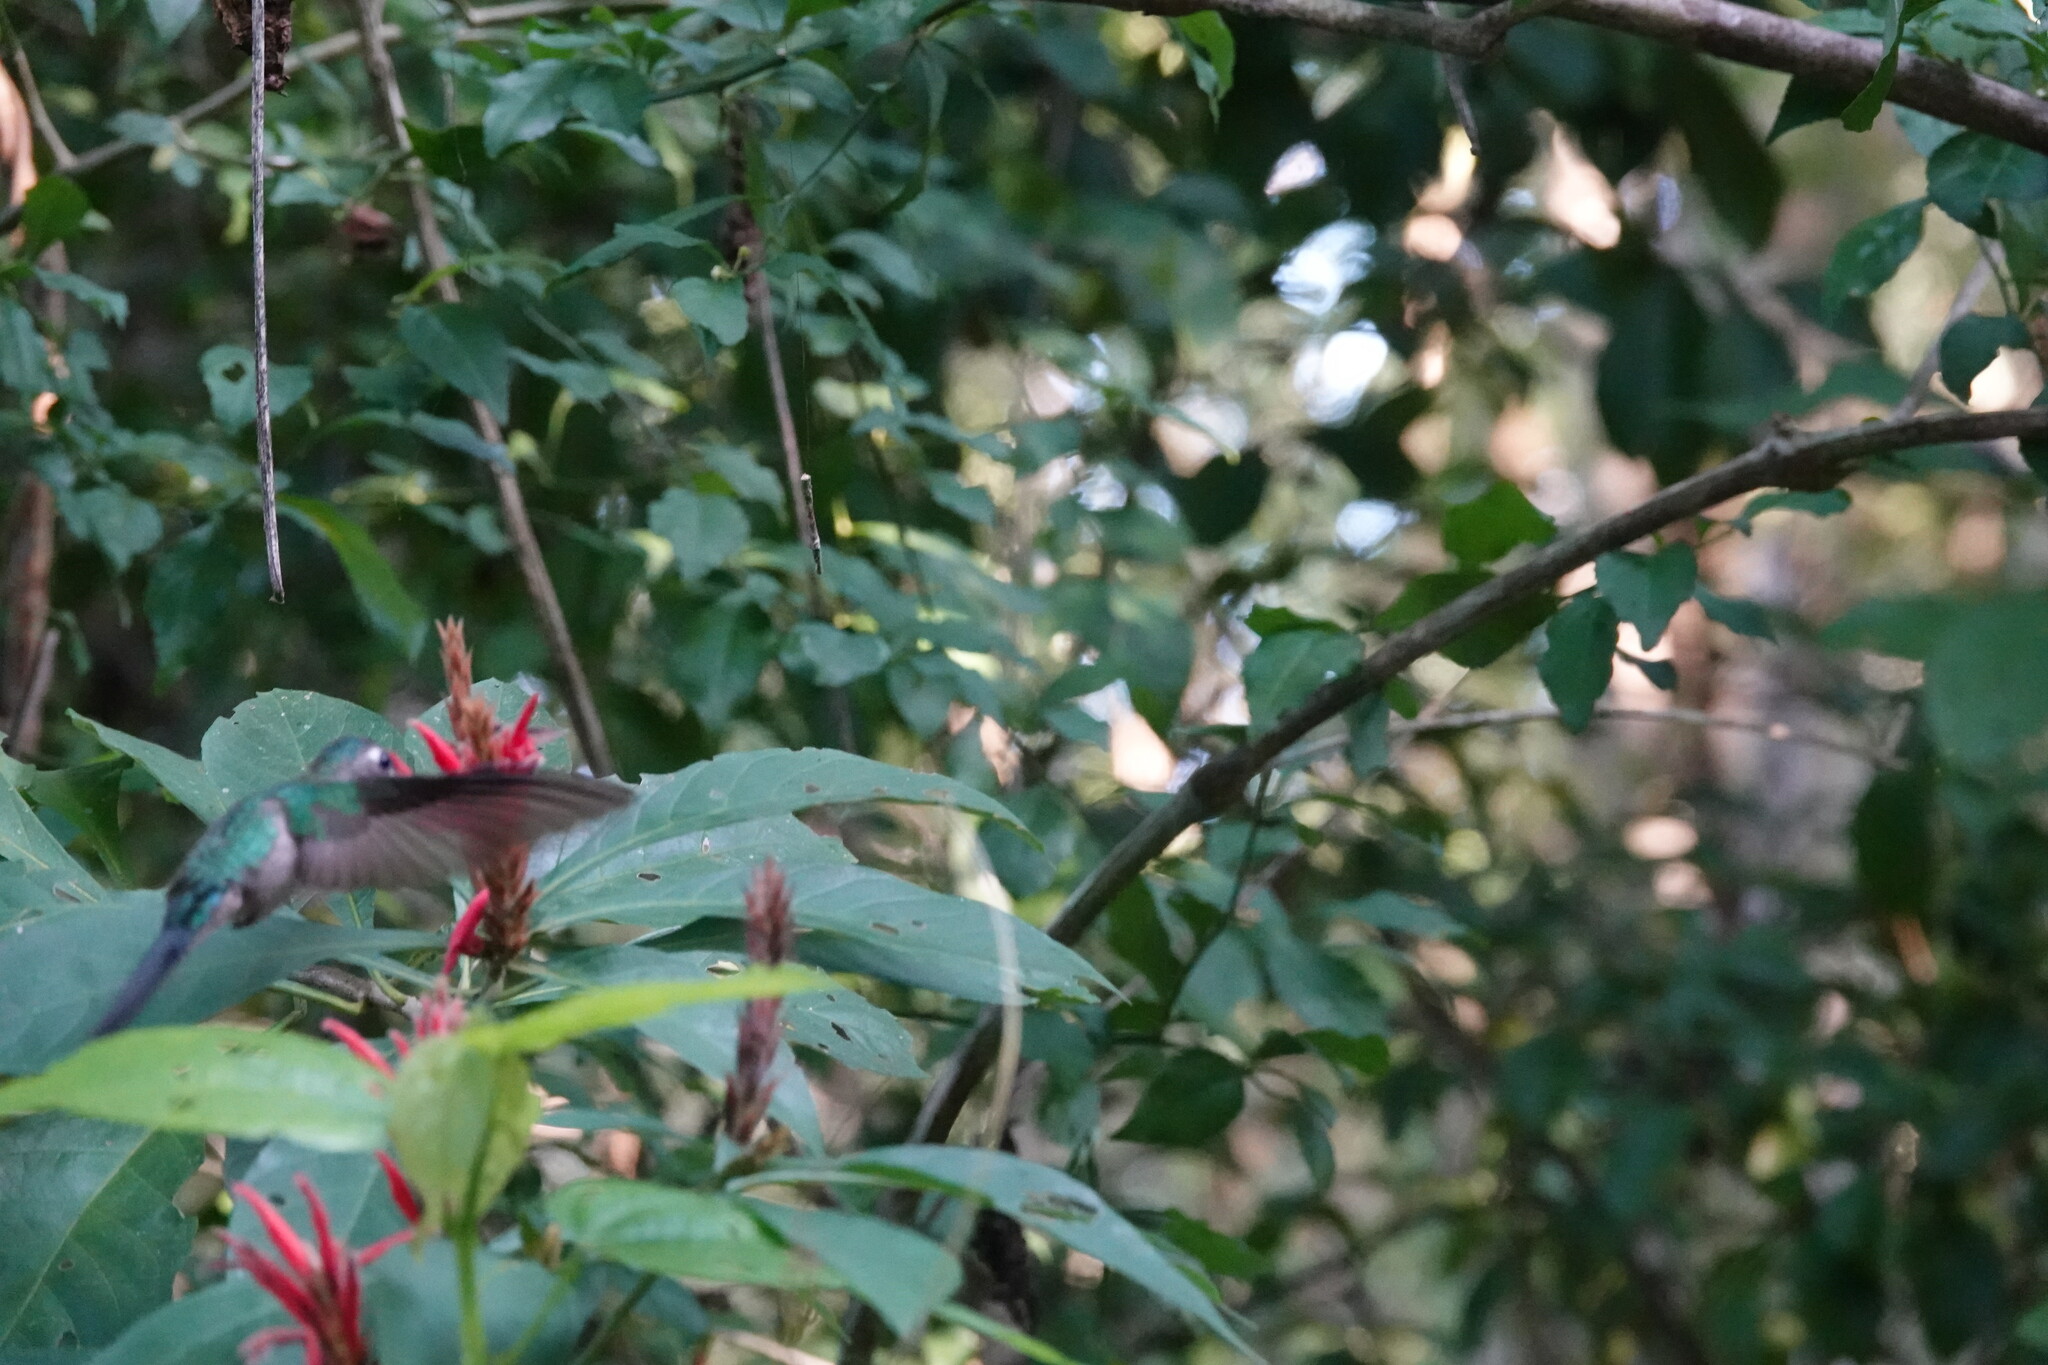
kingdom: Animalia
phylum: Chordata
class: Aves
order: Apodiformes
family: Trochilidae
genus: Pampa
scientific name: Pampa curvipennis
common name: Curve-winged sabrewing
